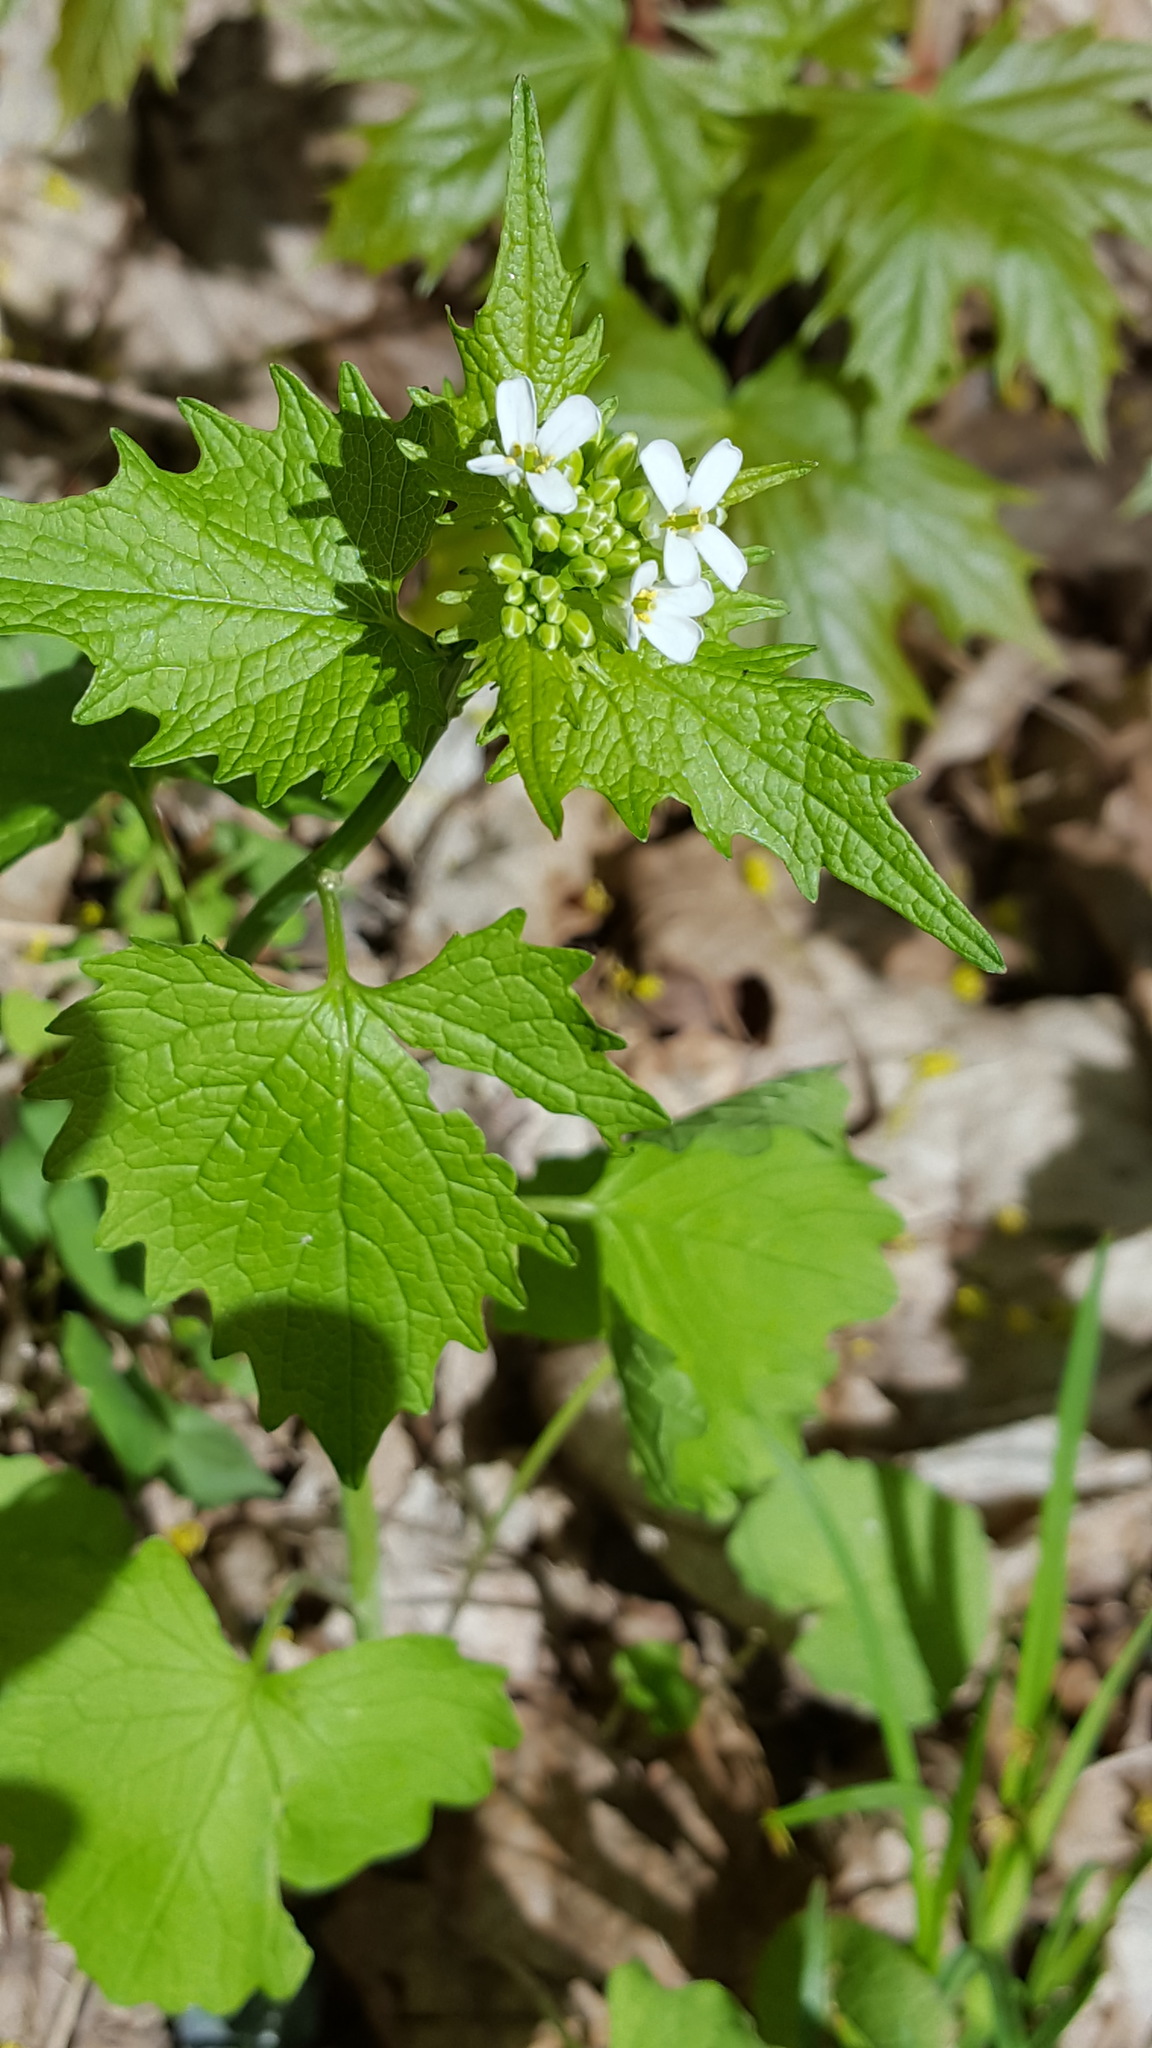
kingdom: Plantae
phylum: Tracheophyta
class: Magnoliopsida
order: Brassicales
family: Brassicaceae
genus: Alliaria
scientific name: Alliaria petiolata
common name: Garlic mustard
